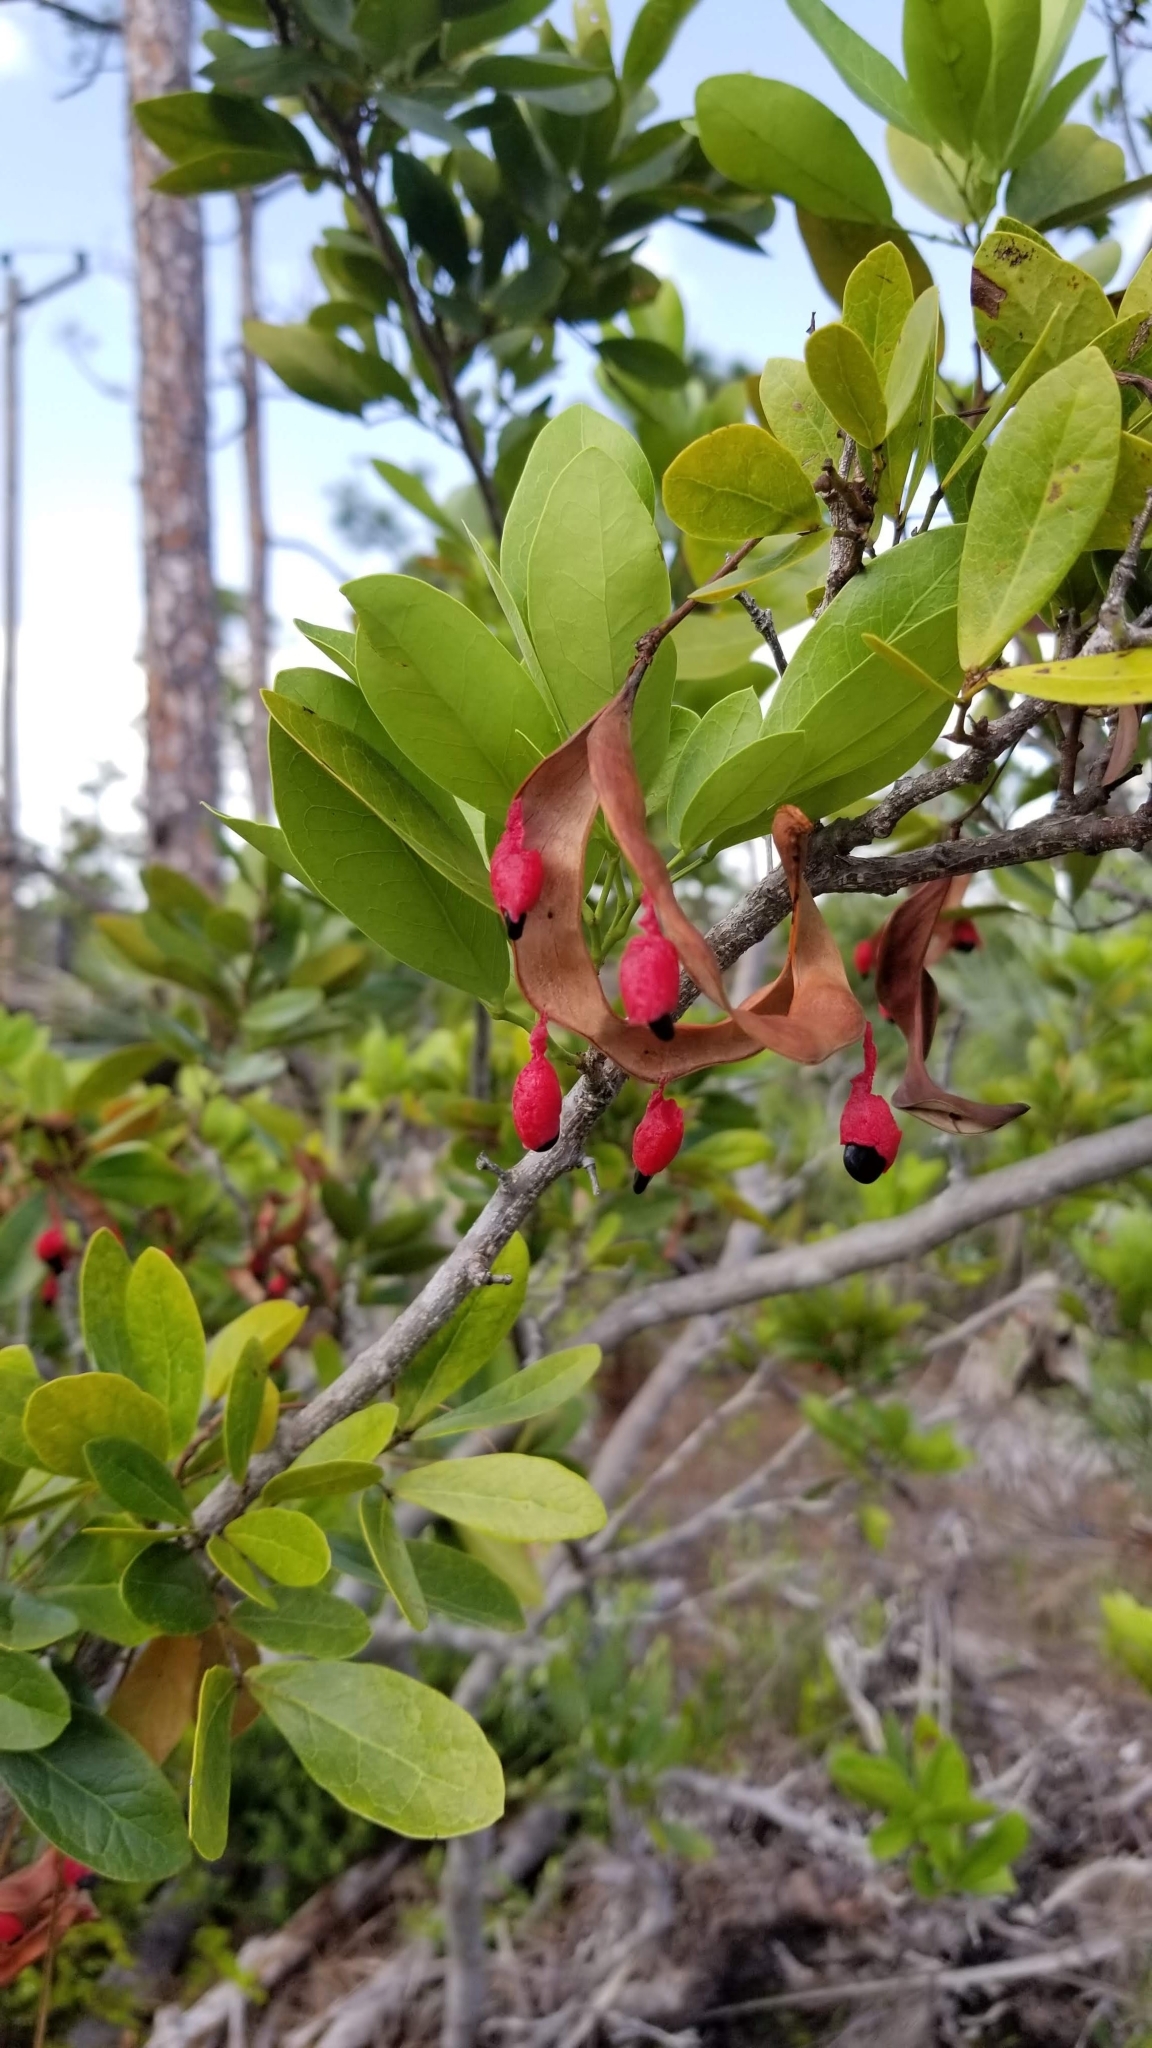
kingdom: Plantae
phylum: Tracheophyta
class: Magnoliopsida
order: Fabales
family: Fabaceae
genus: Pithecellobium
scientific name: Pithecellobium keyense
